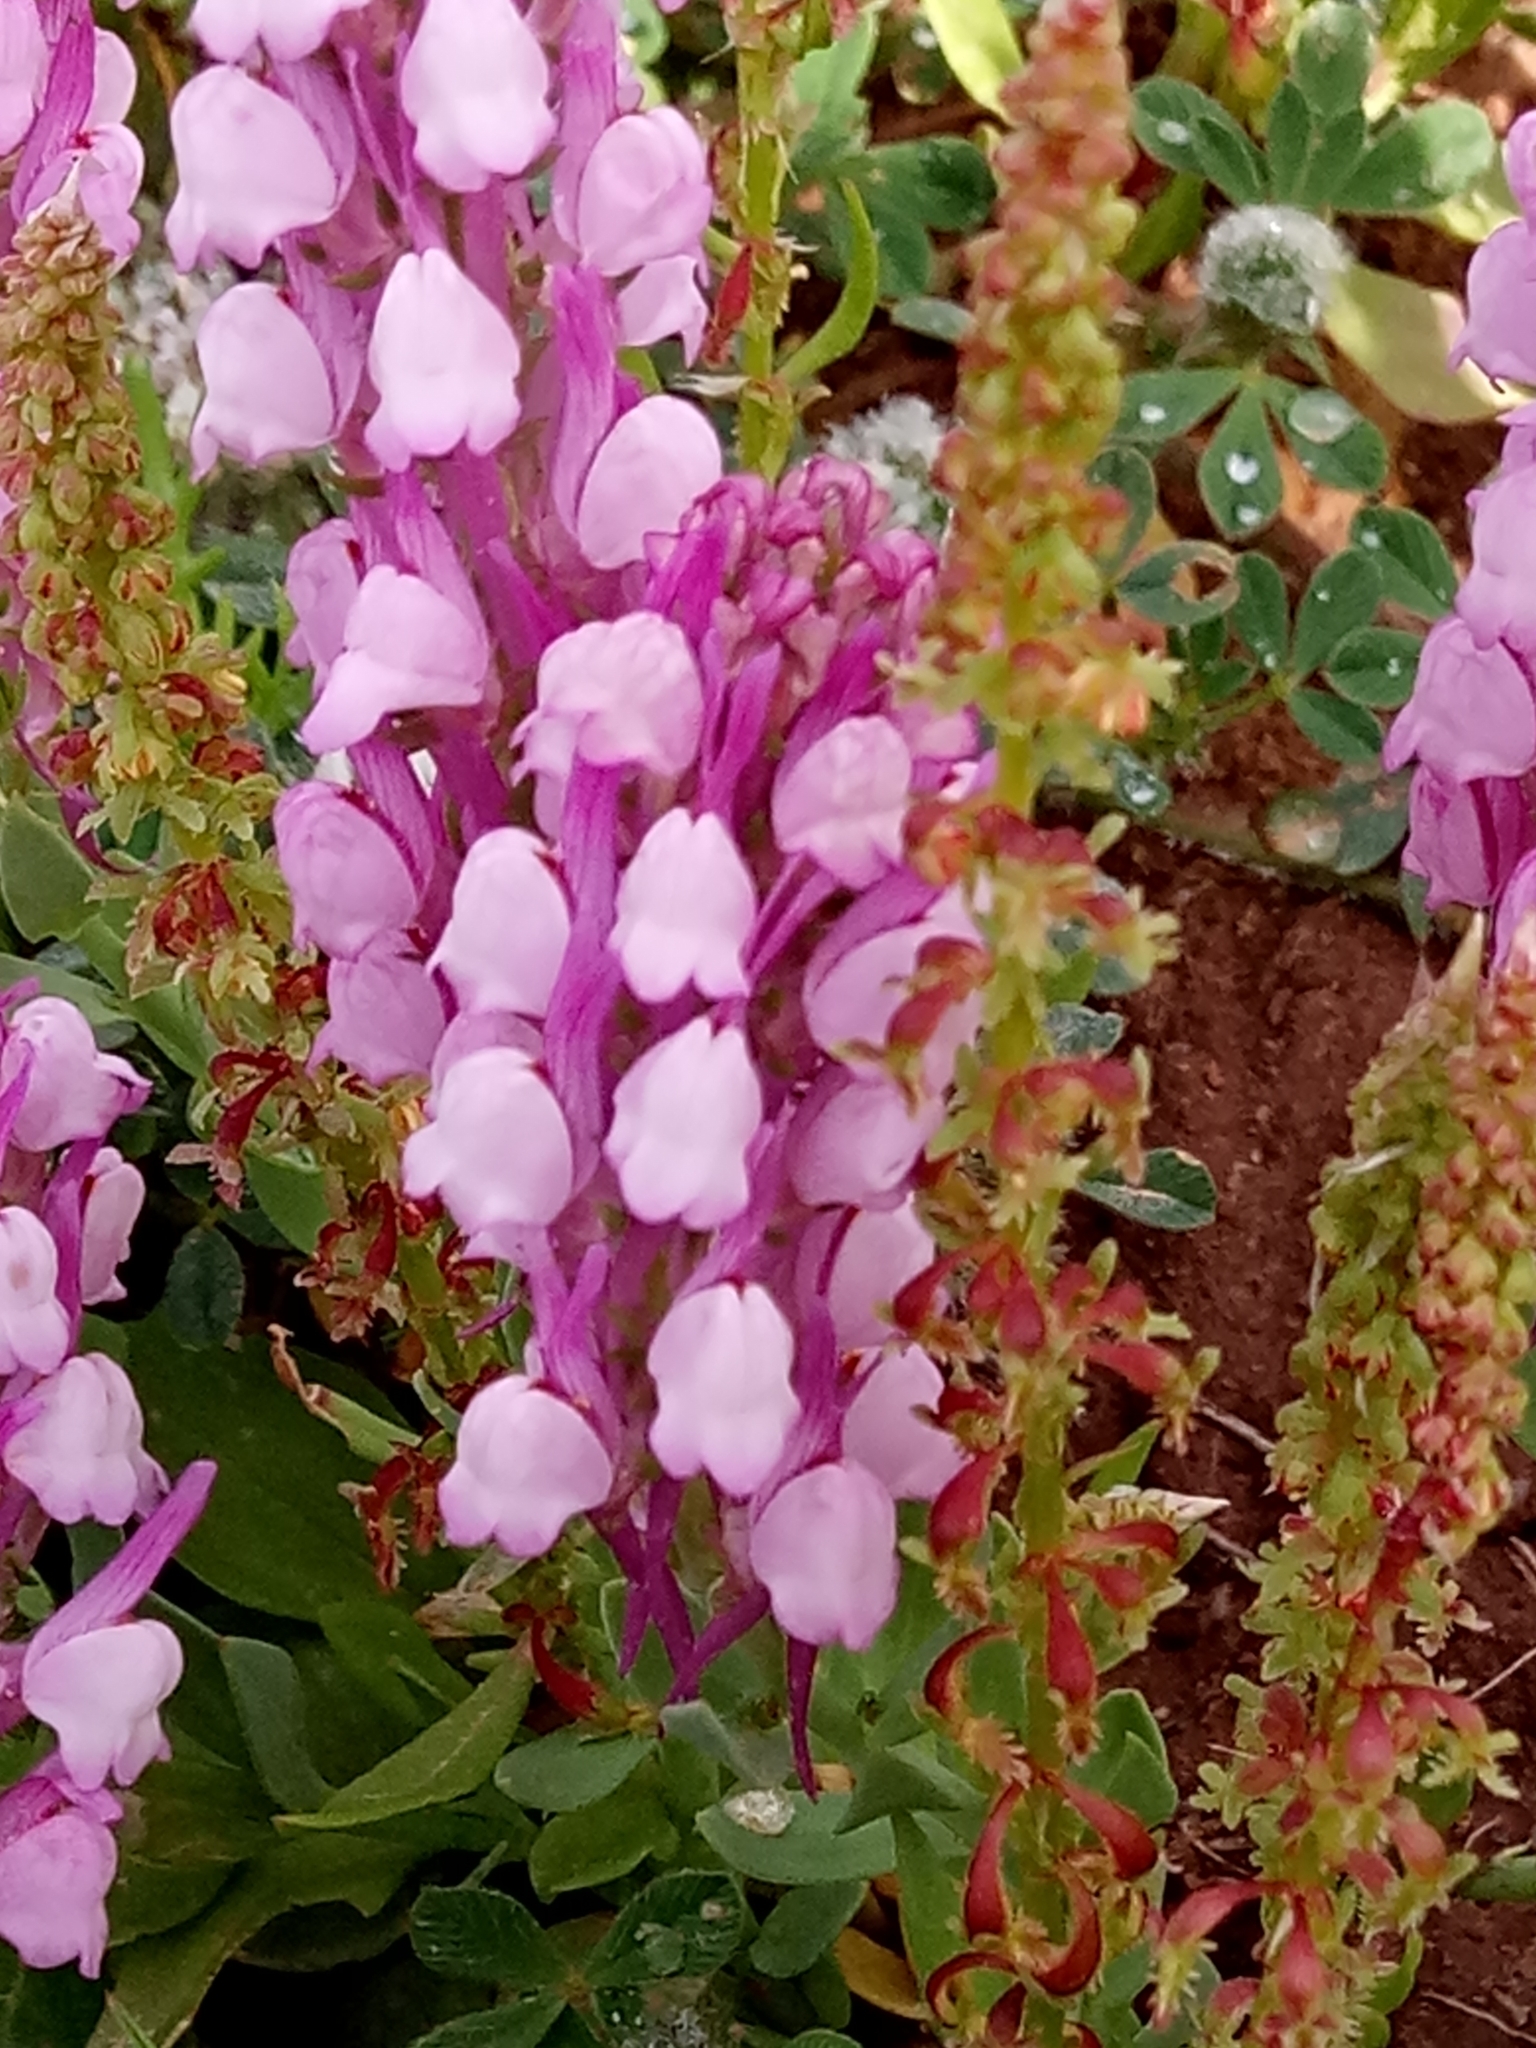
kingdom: Plantae
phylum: Tracheophyta
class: Magnoliopsida
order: Lamiales
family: Plantaginaceae
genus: Linaria
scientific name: Linaria virgata
